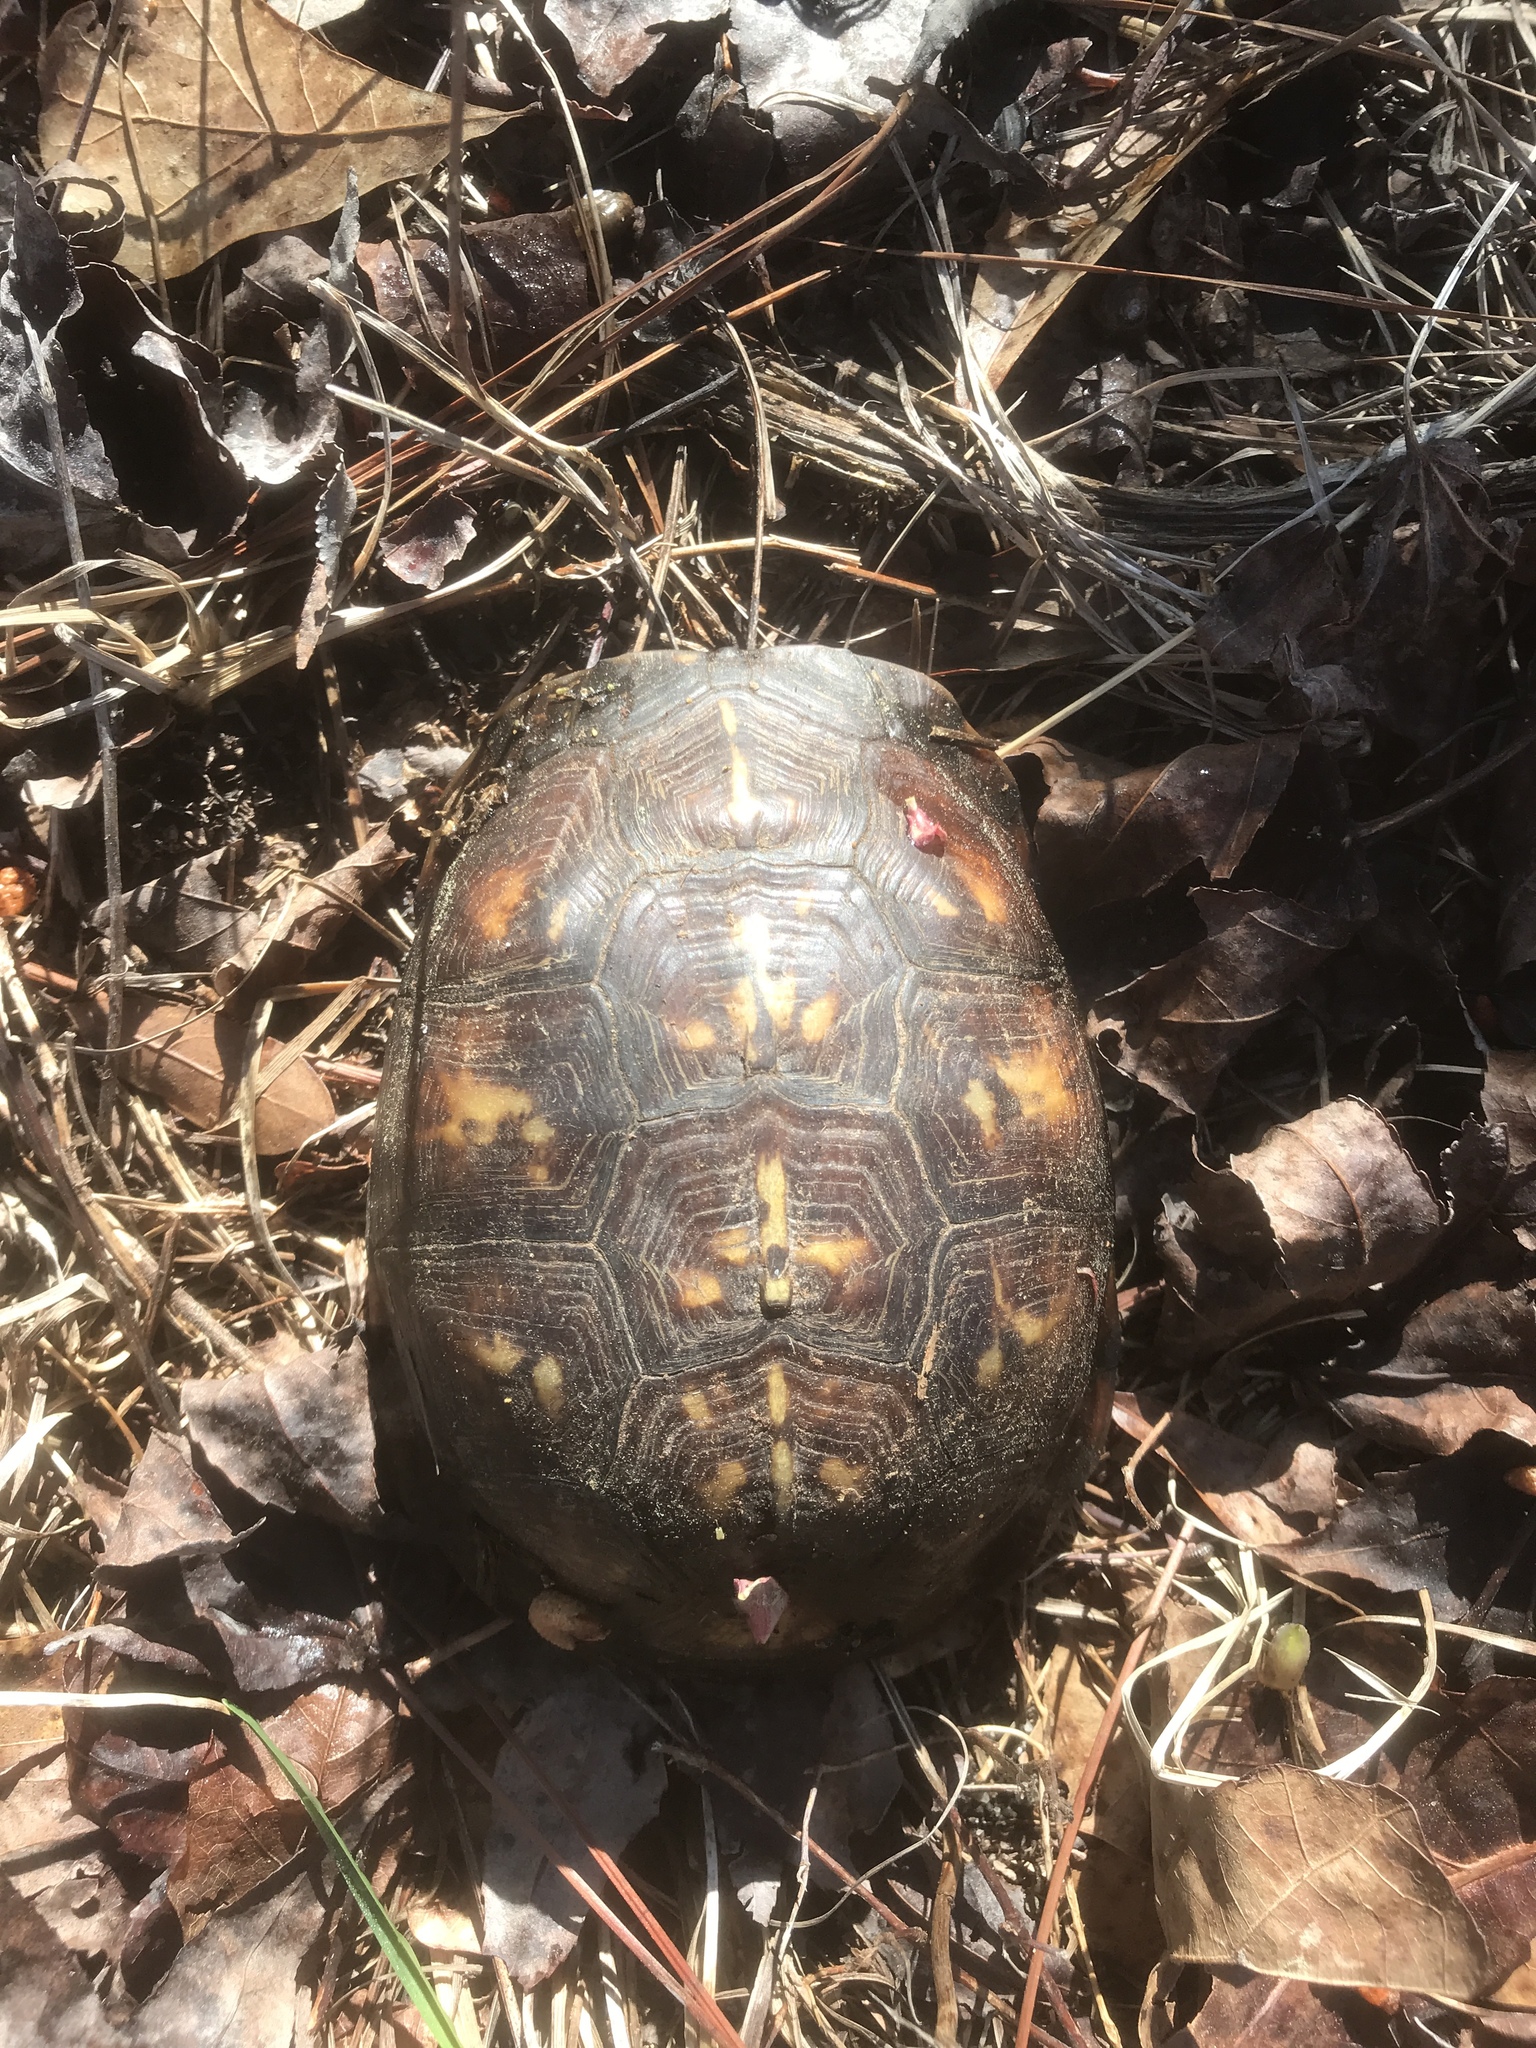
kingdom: Animalia
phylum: Chordata
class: Testudines
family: Emydidae
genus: Terrapene
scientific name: Terrapene carolina
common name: Common box turtle
